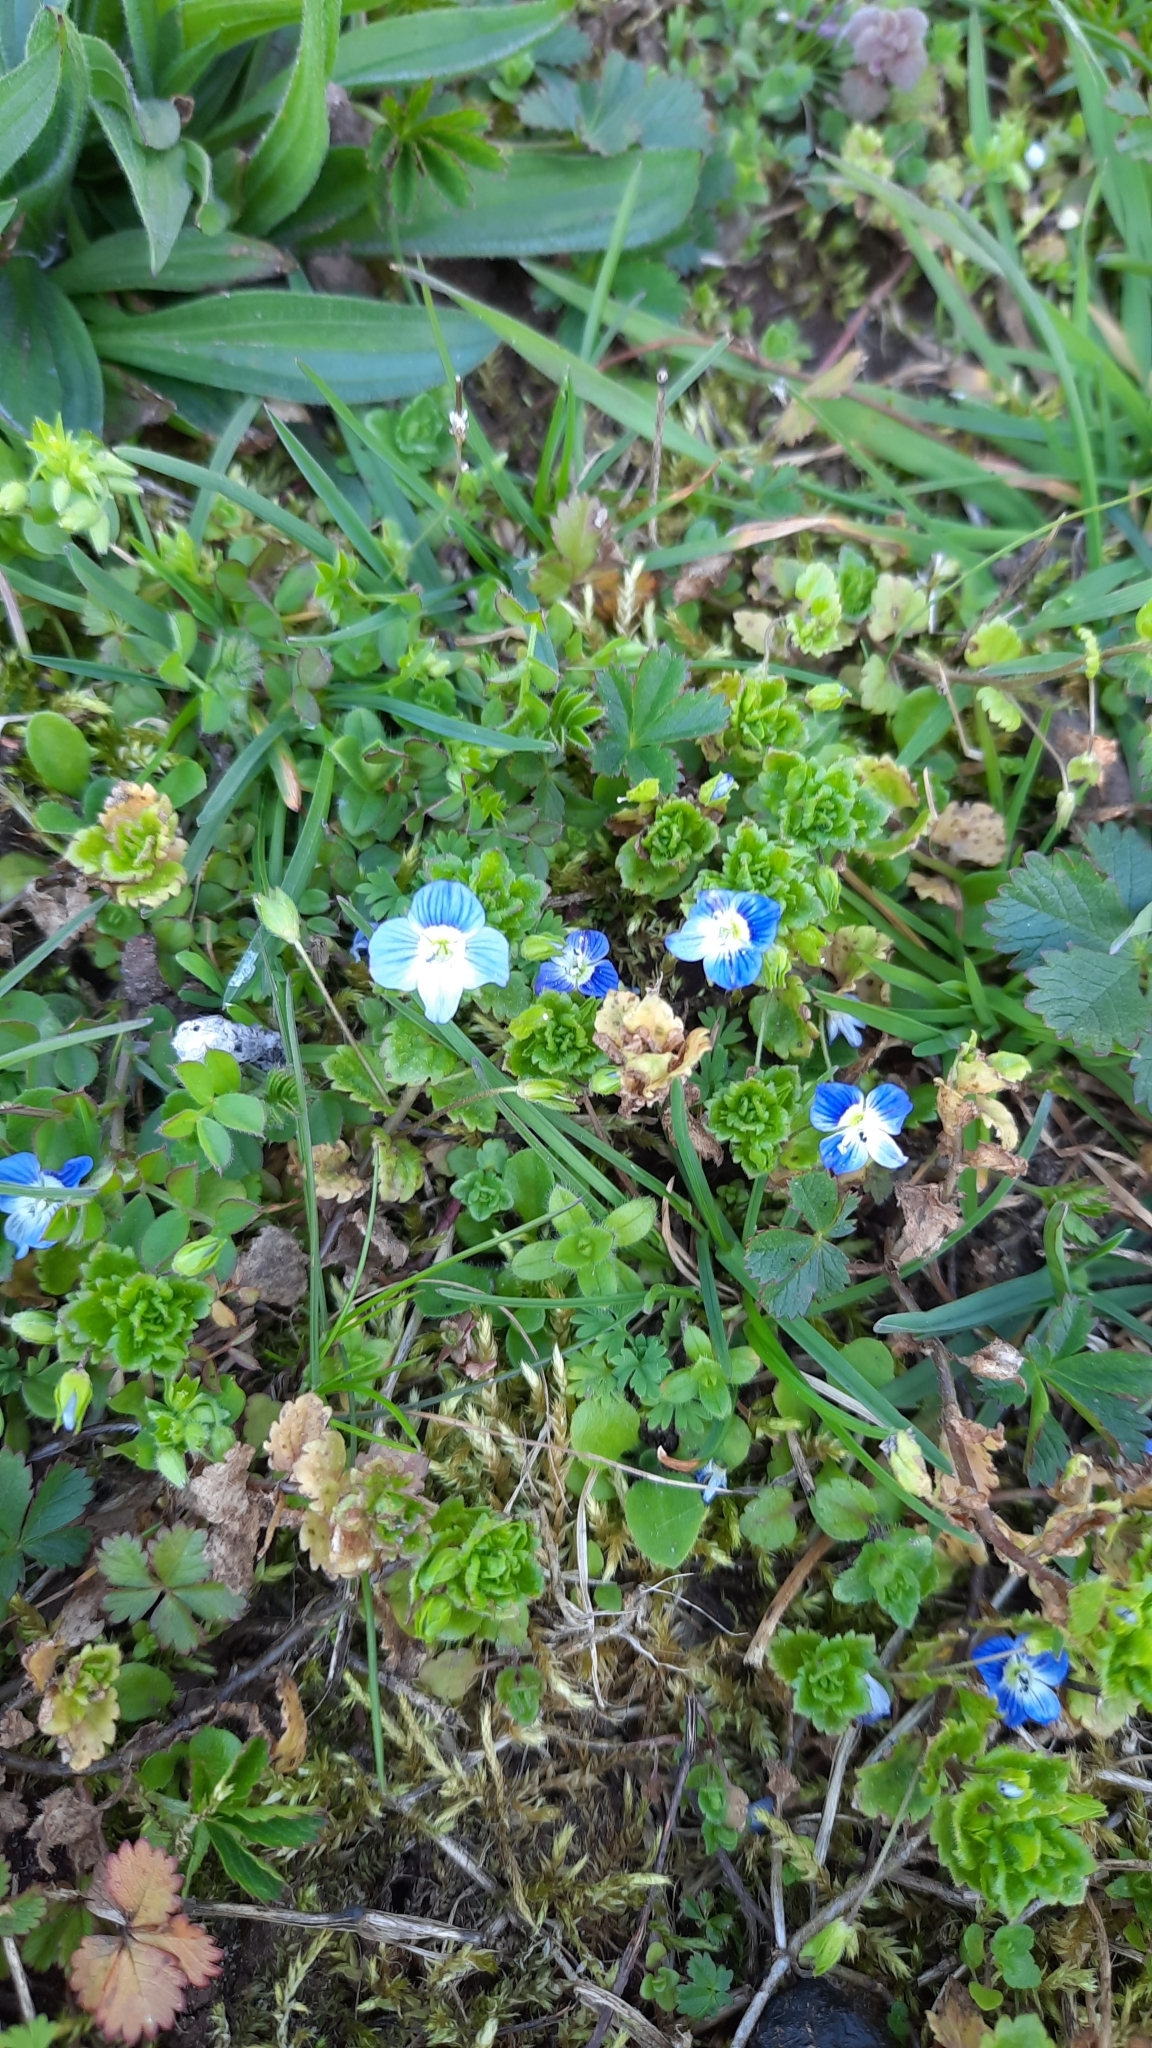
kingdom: Plantae
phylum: Tracheophyta
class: Magnoliopsida
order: Lamiales
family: Plantaginaceae
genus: Veronica
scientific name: Veronica persica
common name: Common field-speedwell
